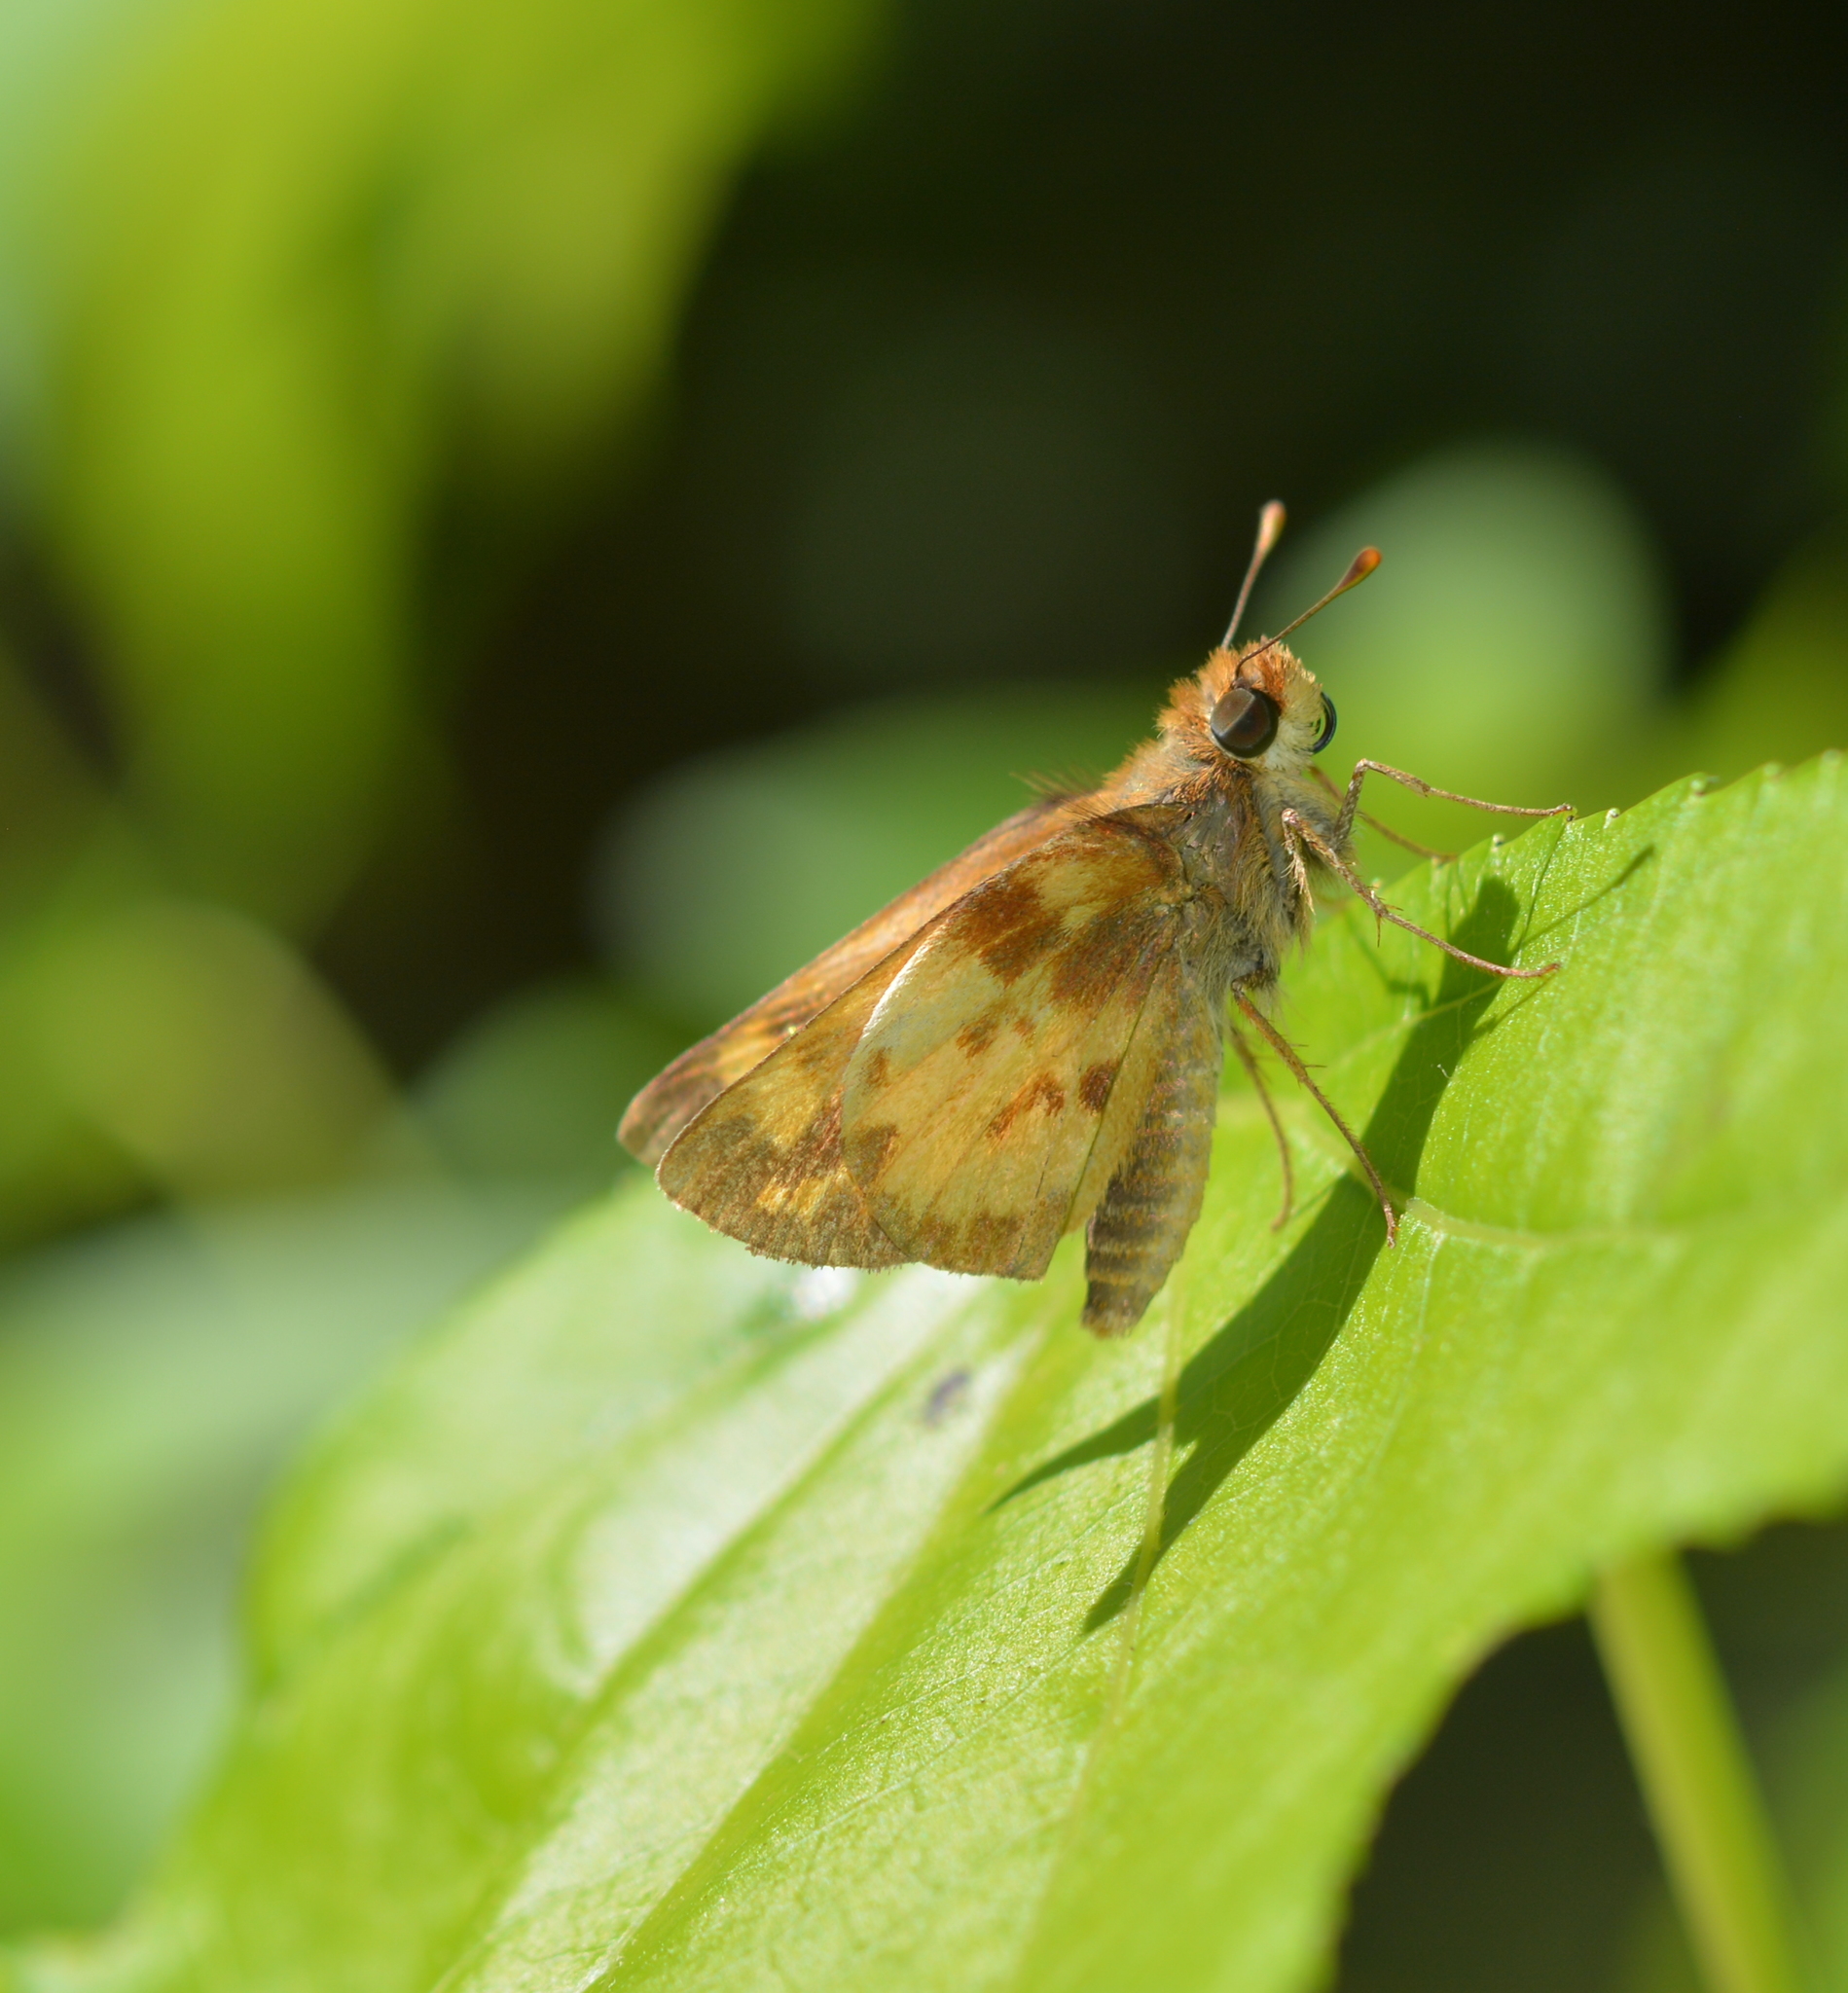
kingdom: Animalia
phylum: Arthropoda
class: Insecta
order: Lepidoptera
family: Hesperiidae
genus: Lon
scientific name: Lon zabulon
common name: Zabulon skipper
